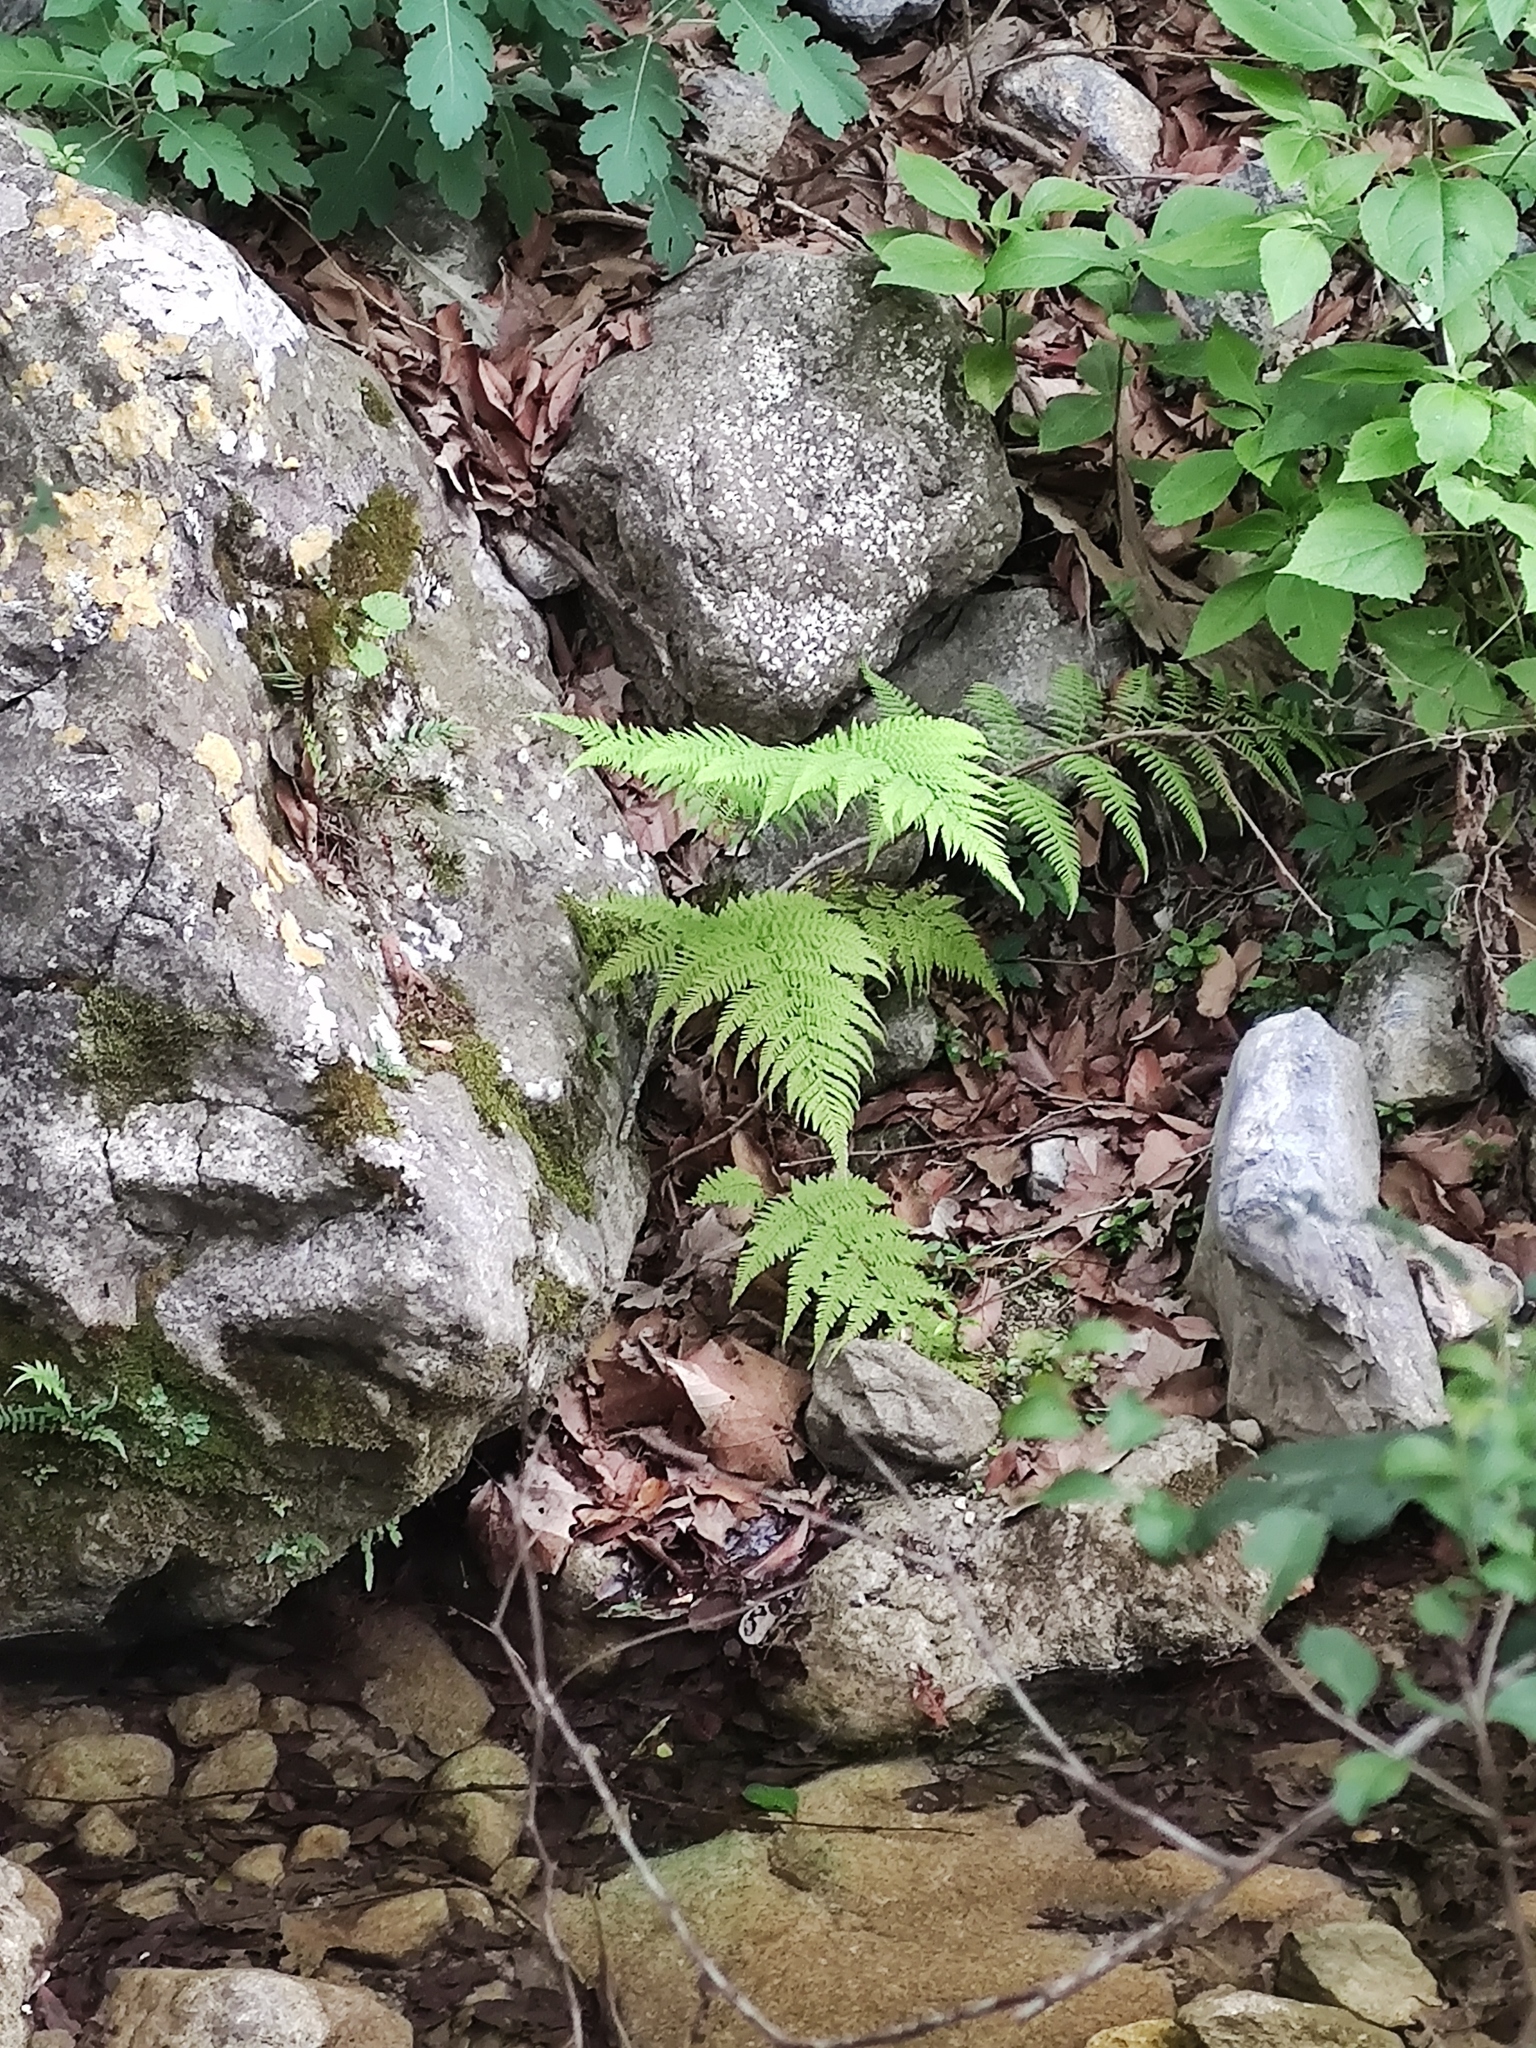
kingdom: Plantae
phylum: Tracheophyta
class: Polypodiopsida
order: Polypodiales
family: Thelypteridaceae
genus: Amauropelta
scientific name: Amauropelta concinna
